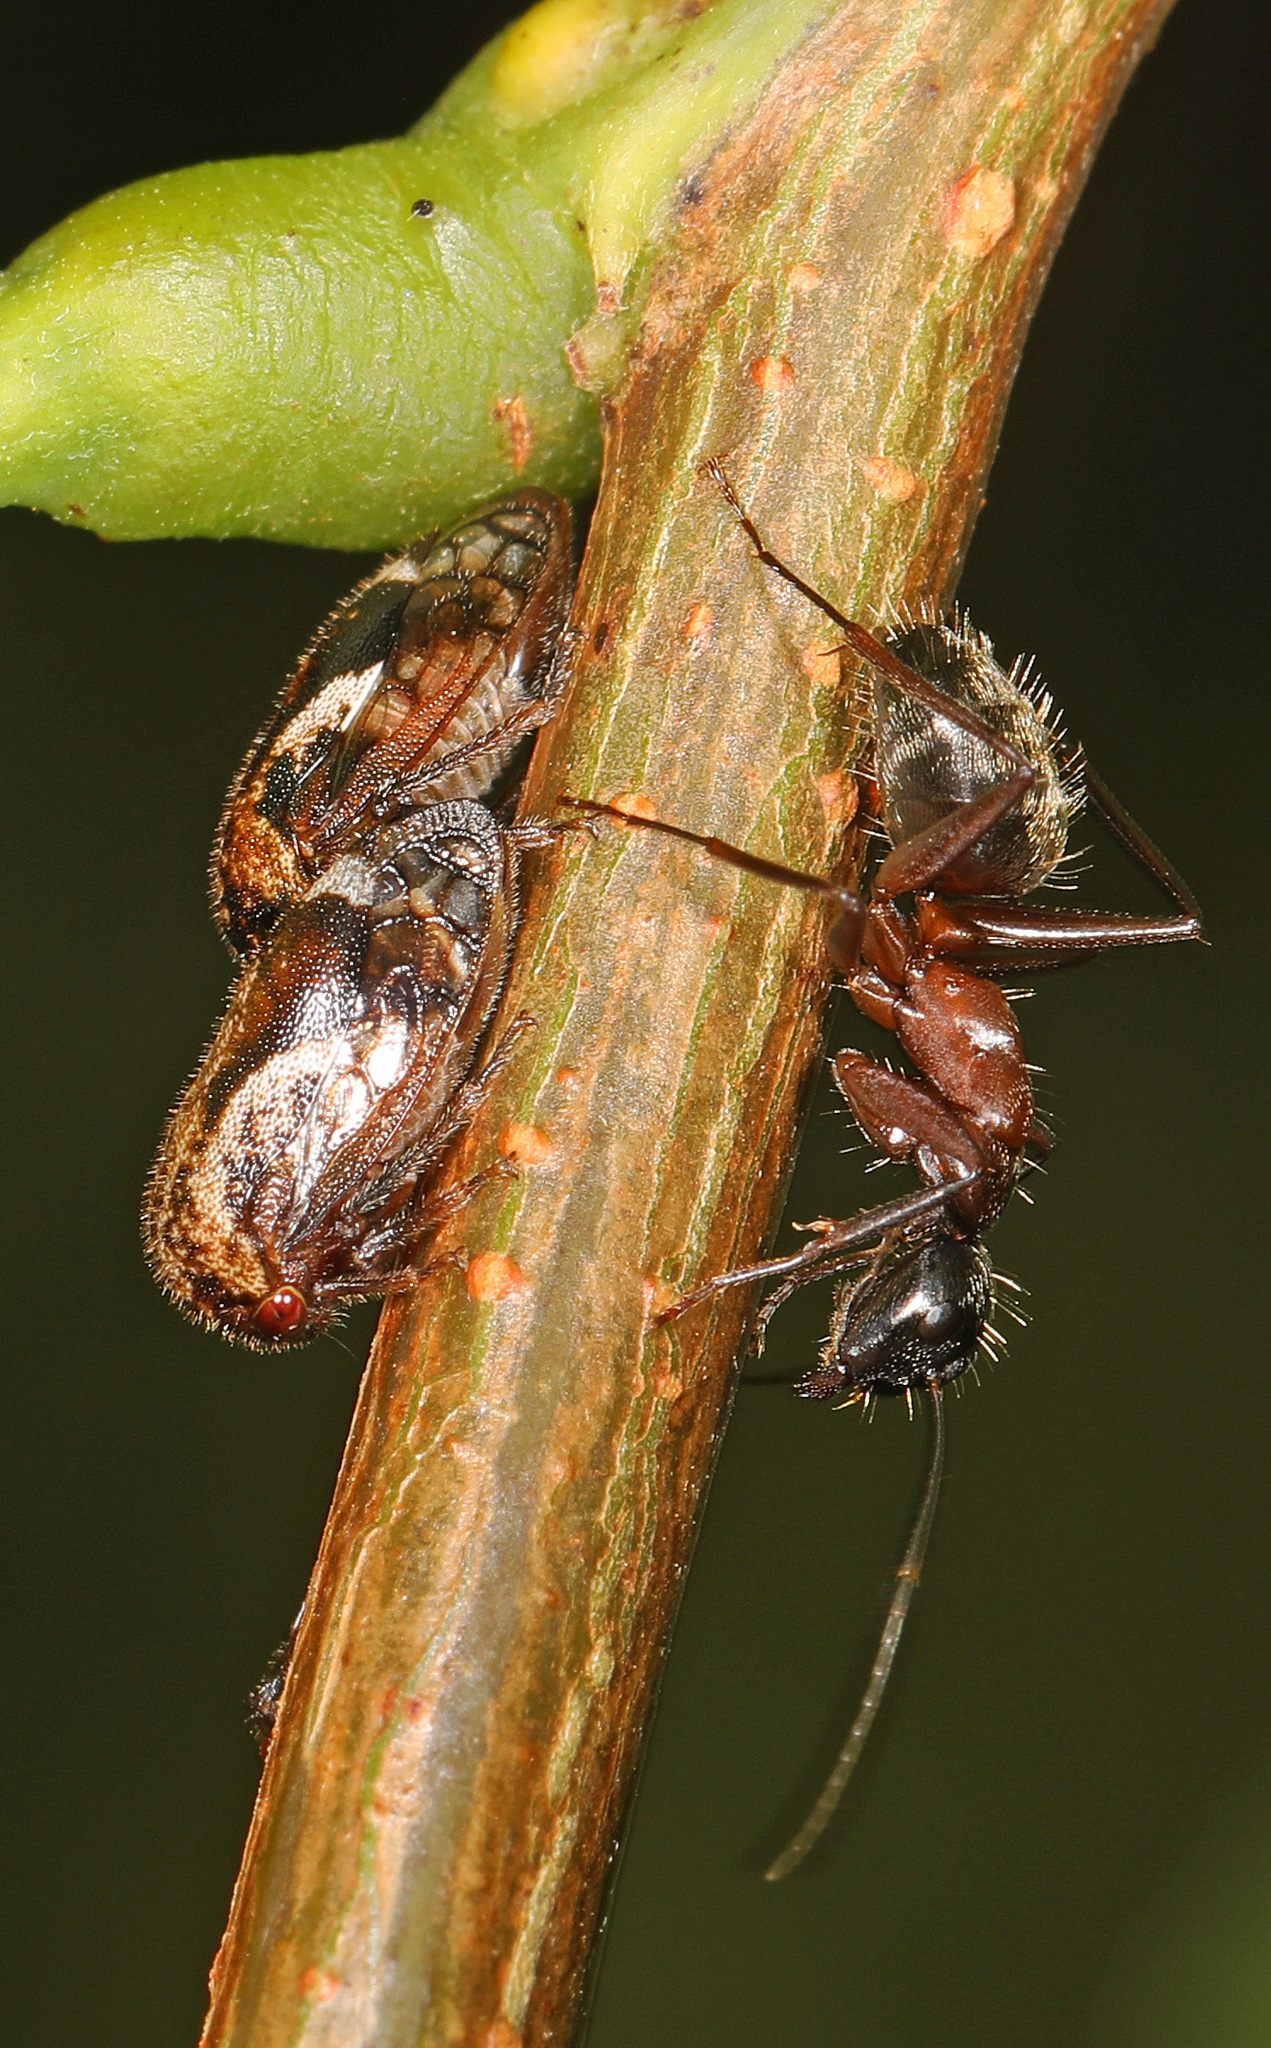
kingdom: Animalia
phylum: Arthropoda
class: Insecta
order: Hymenoptera
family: Formicidae
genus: Camponotus
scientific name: Camponotus chromaiodes
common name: Red carpenter ant
